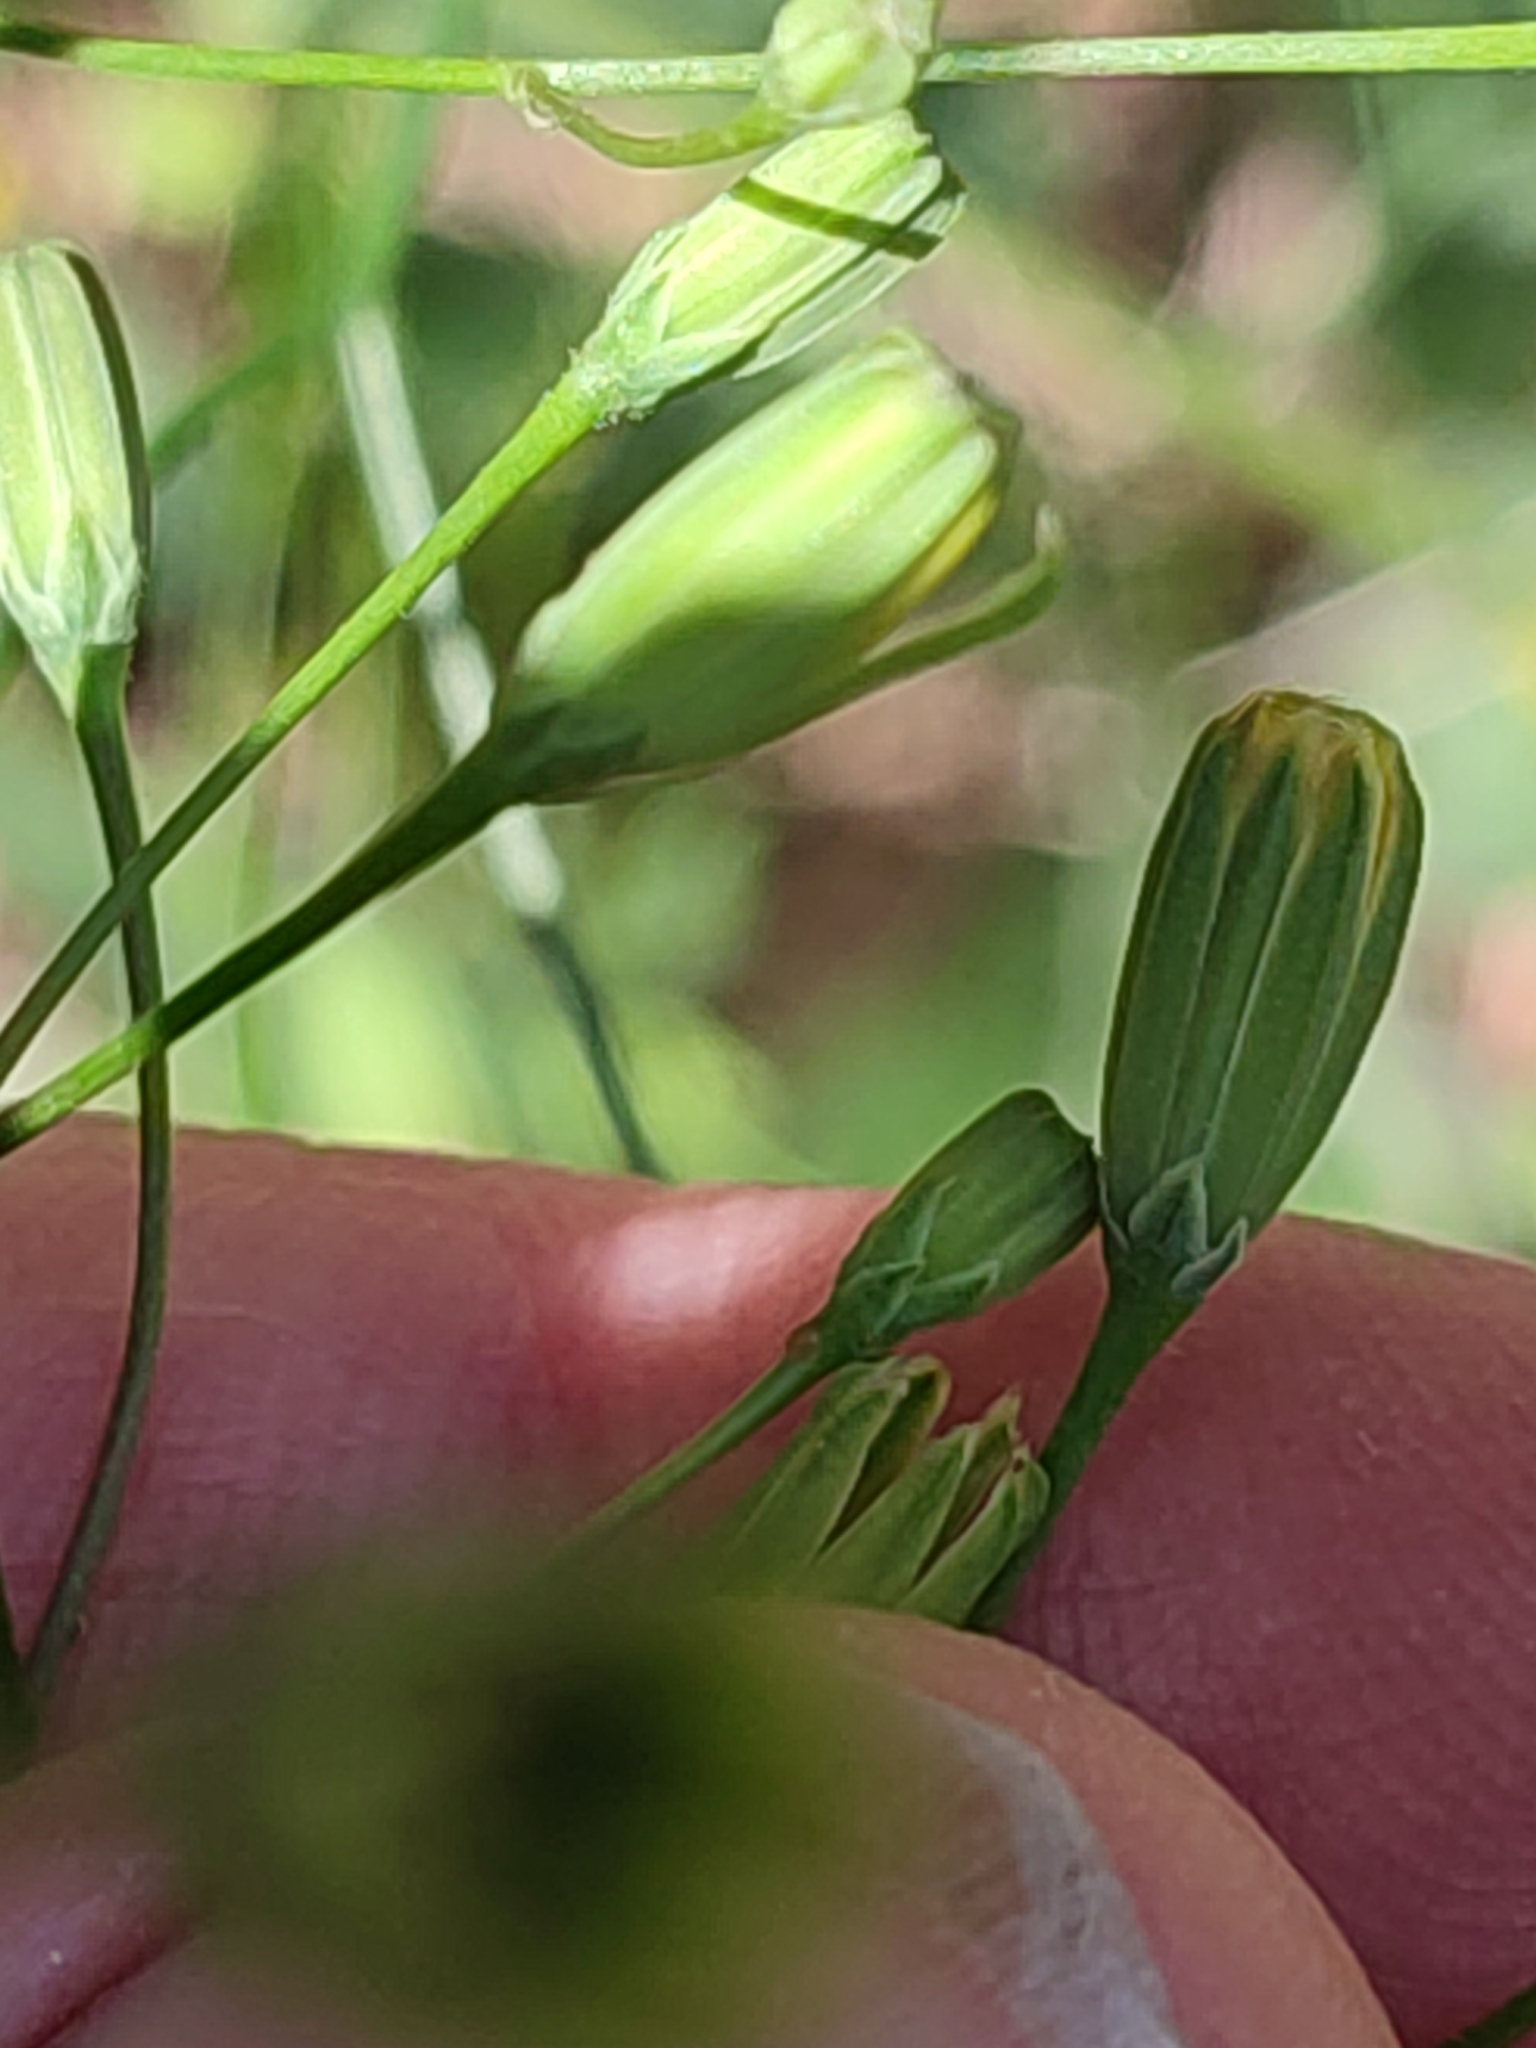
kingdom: Plantae
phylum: Tracheophyta
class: Magnoliopsida
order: Asterales
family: Asteraceae
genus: Lapsana
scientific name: Lapsana communis
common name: Nipplewort
